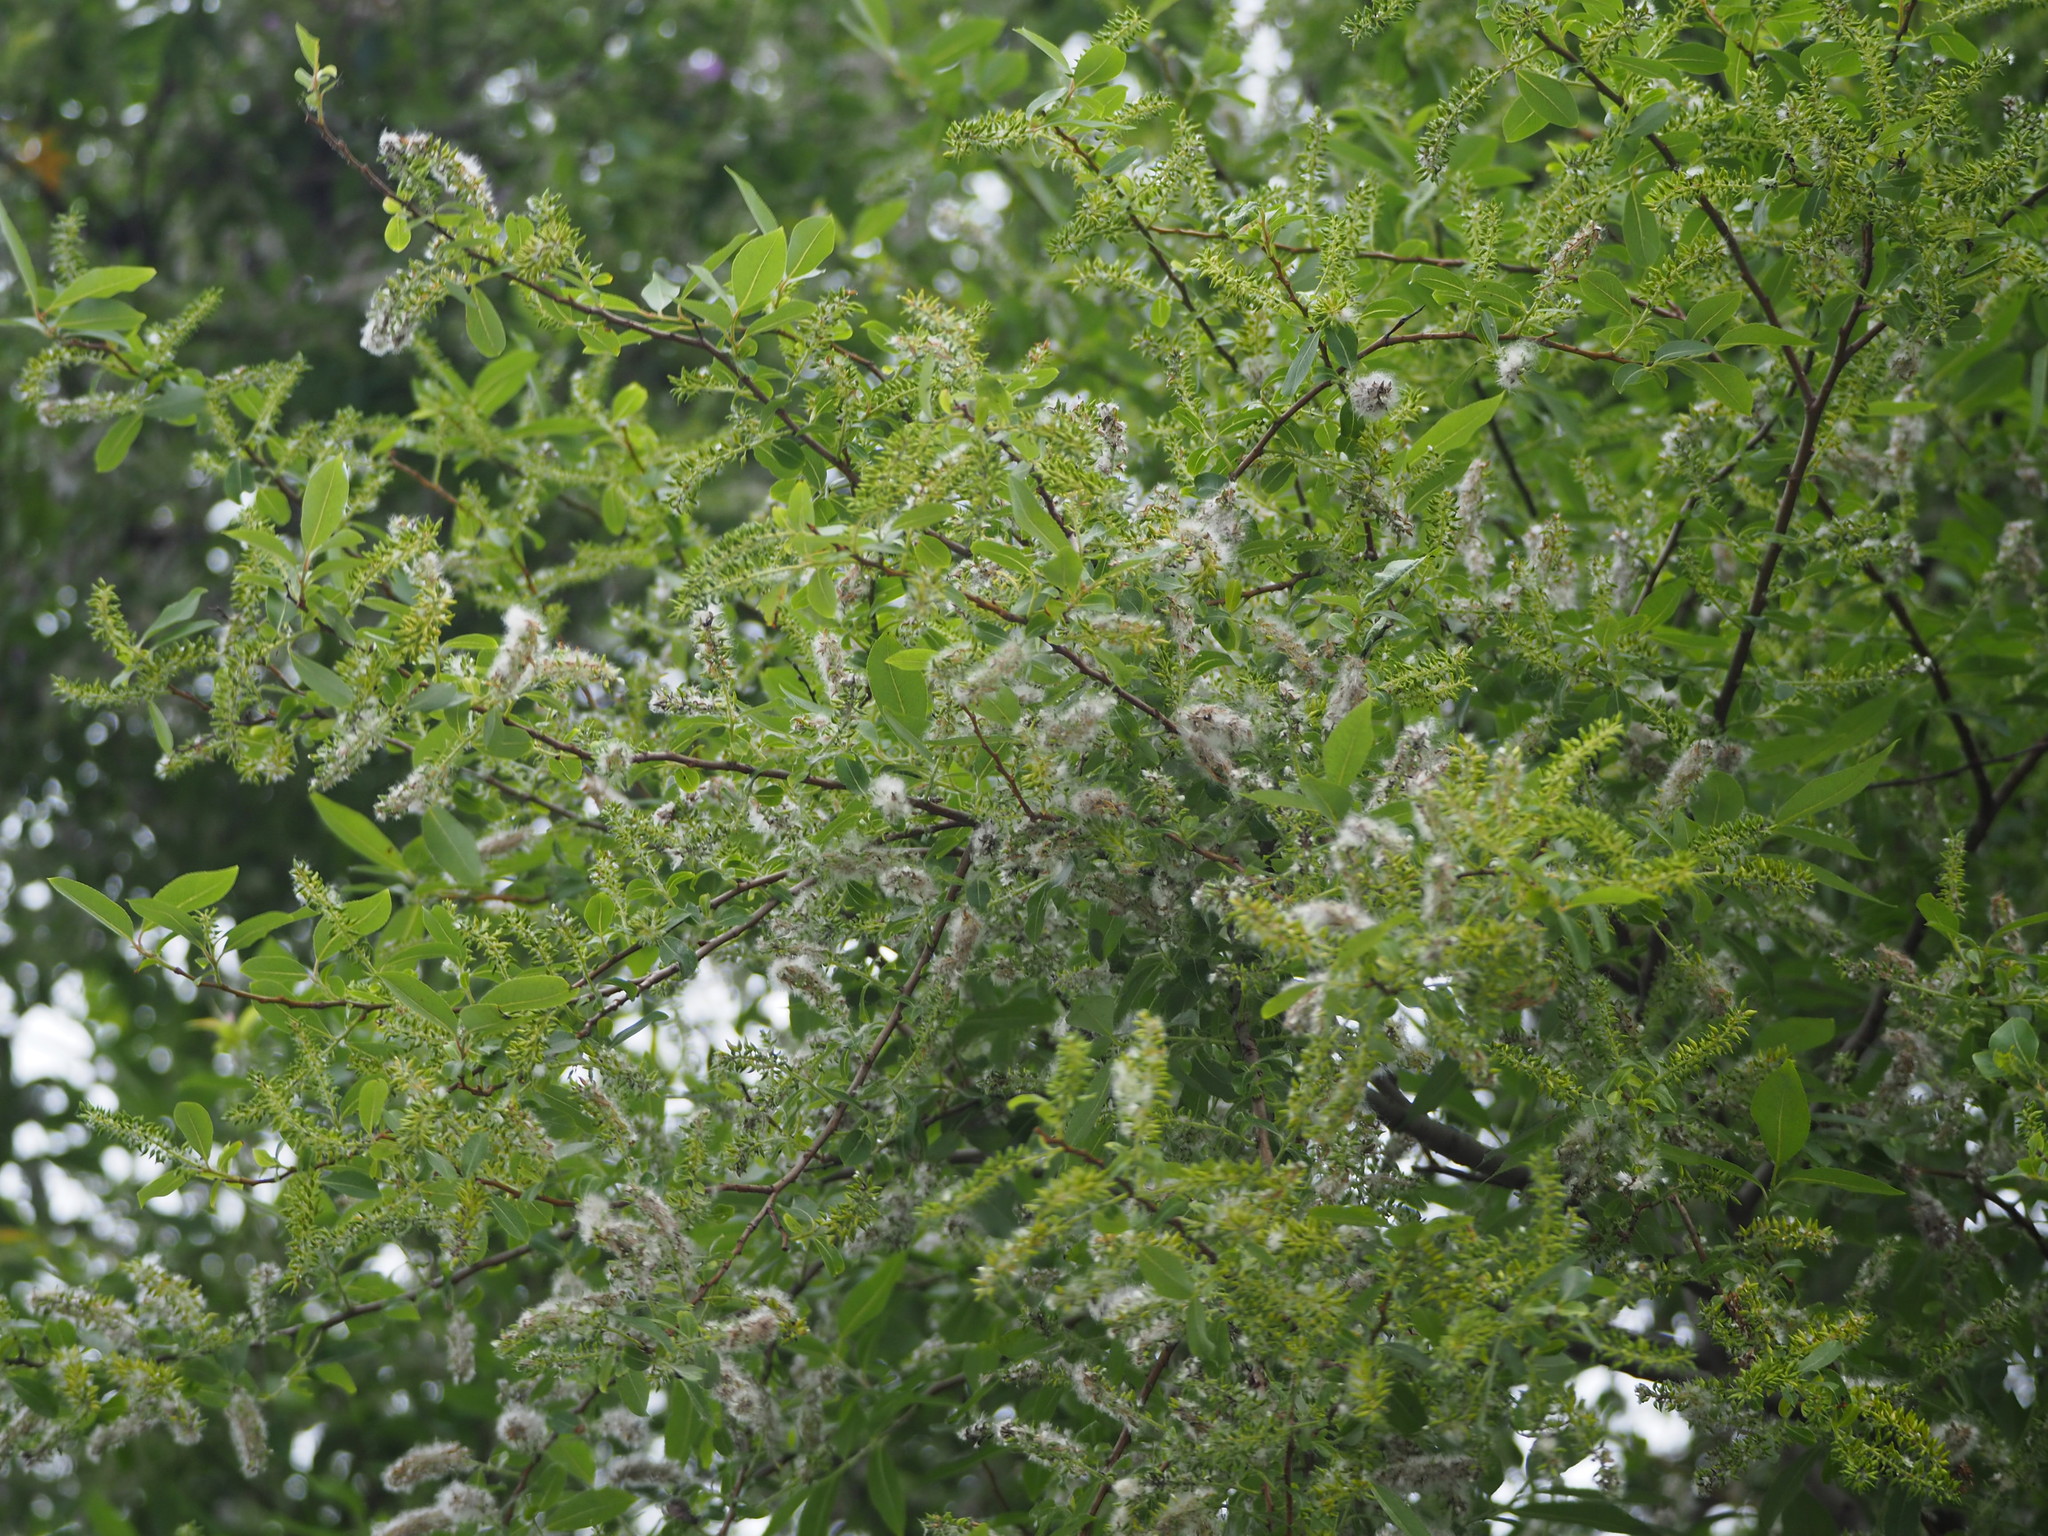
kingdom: Plantae
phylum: Tracheophyta
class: Magnoliopsida
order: Malpighiales
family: Salicaceae
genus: Salix
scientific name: Salix mesnyi
